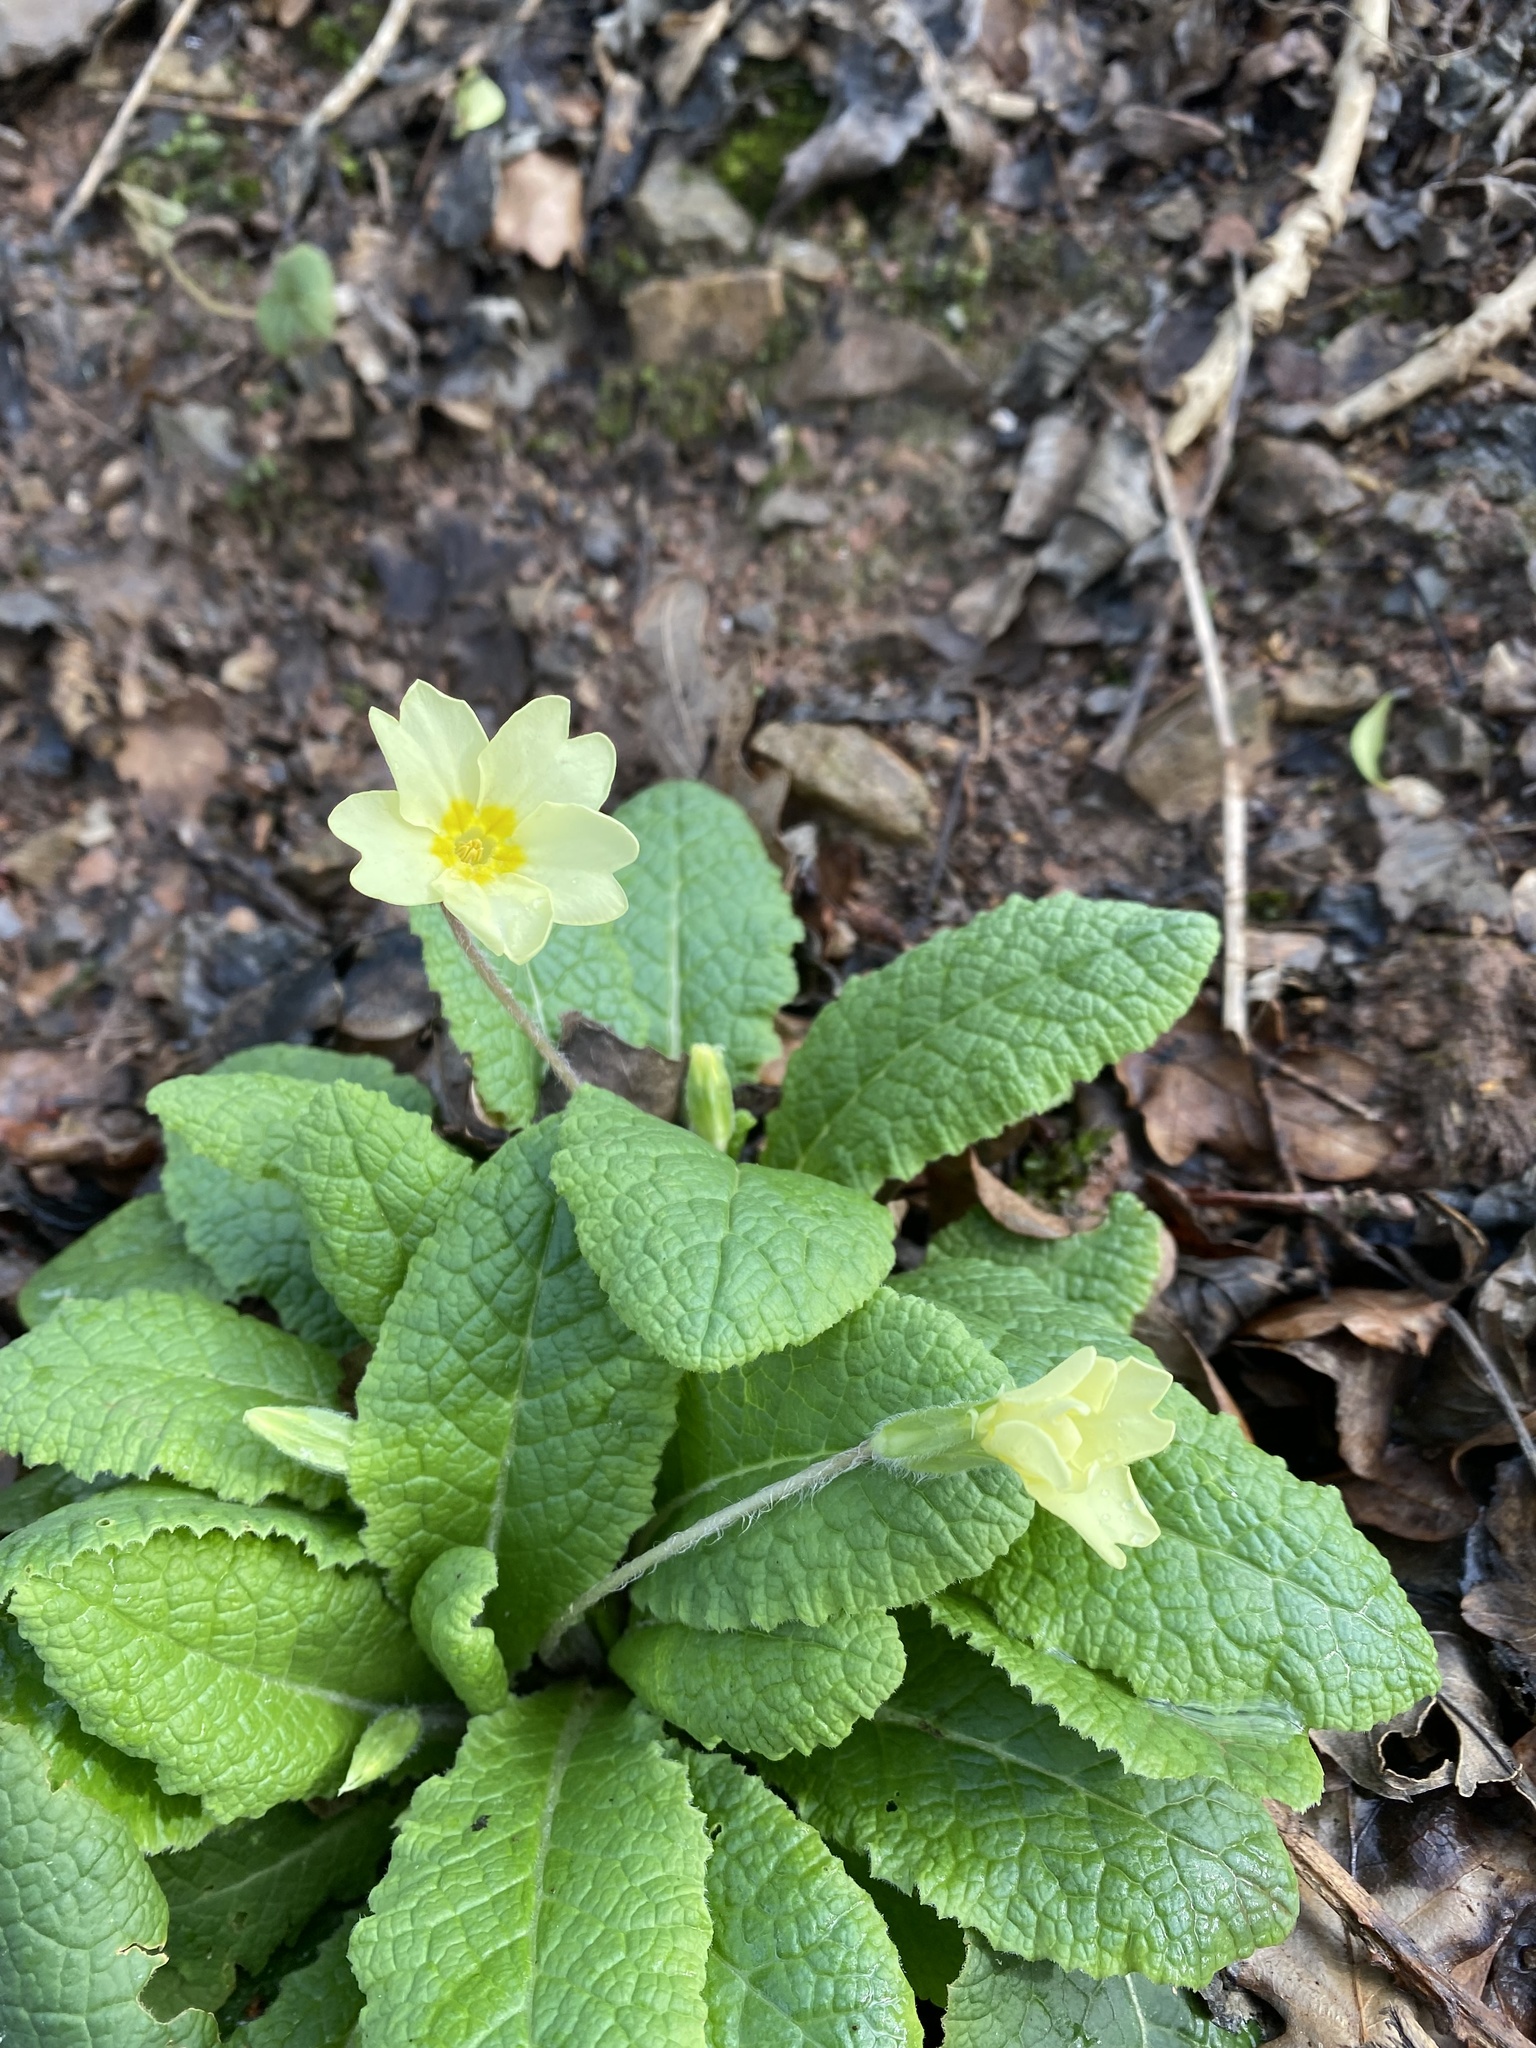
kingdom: Plantae
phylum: Tracheophyta
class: Magnoliopsida
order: Ericales
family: Primulaceae
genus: Primula
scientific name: Primula vulgaris
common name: Primrose
